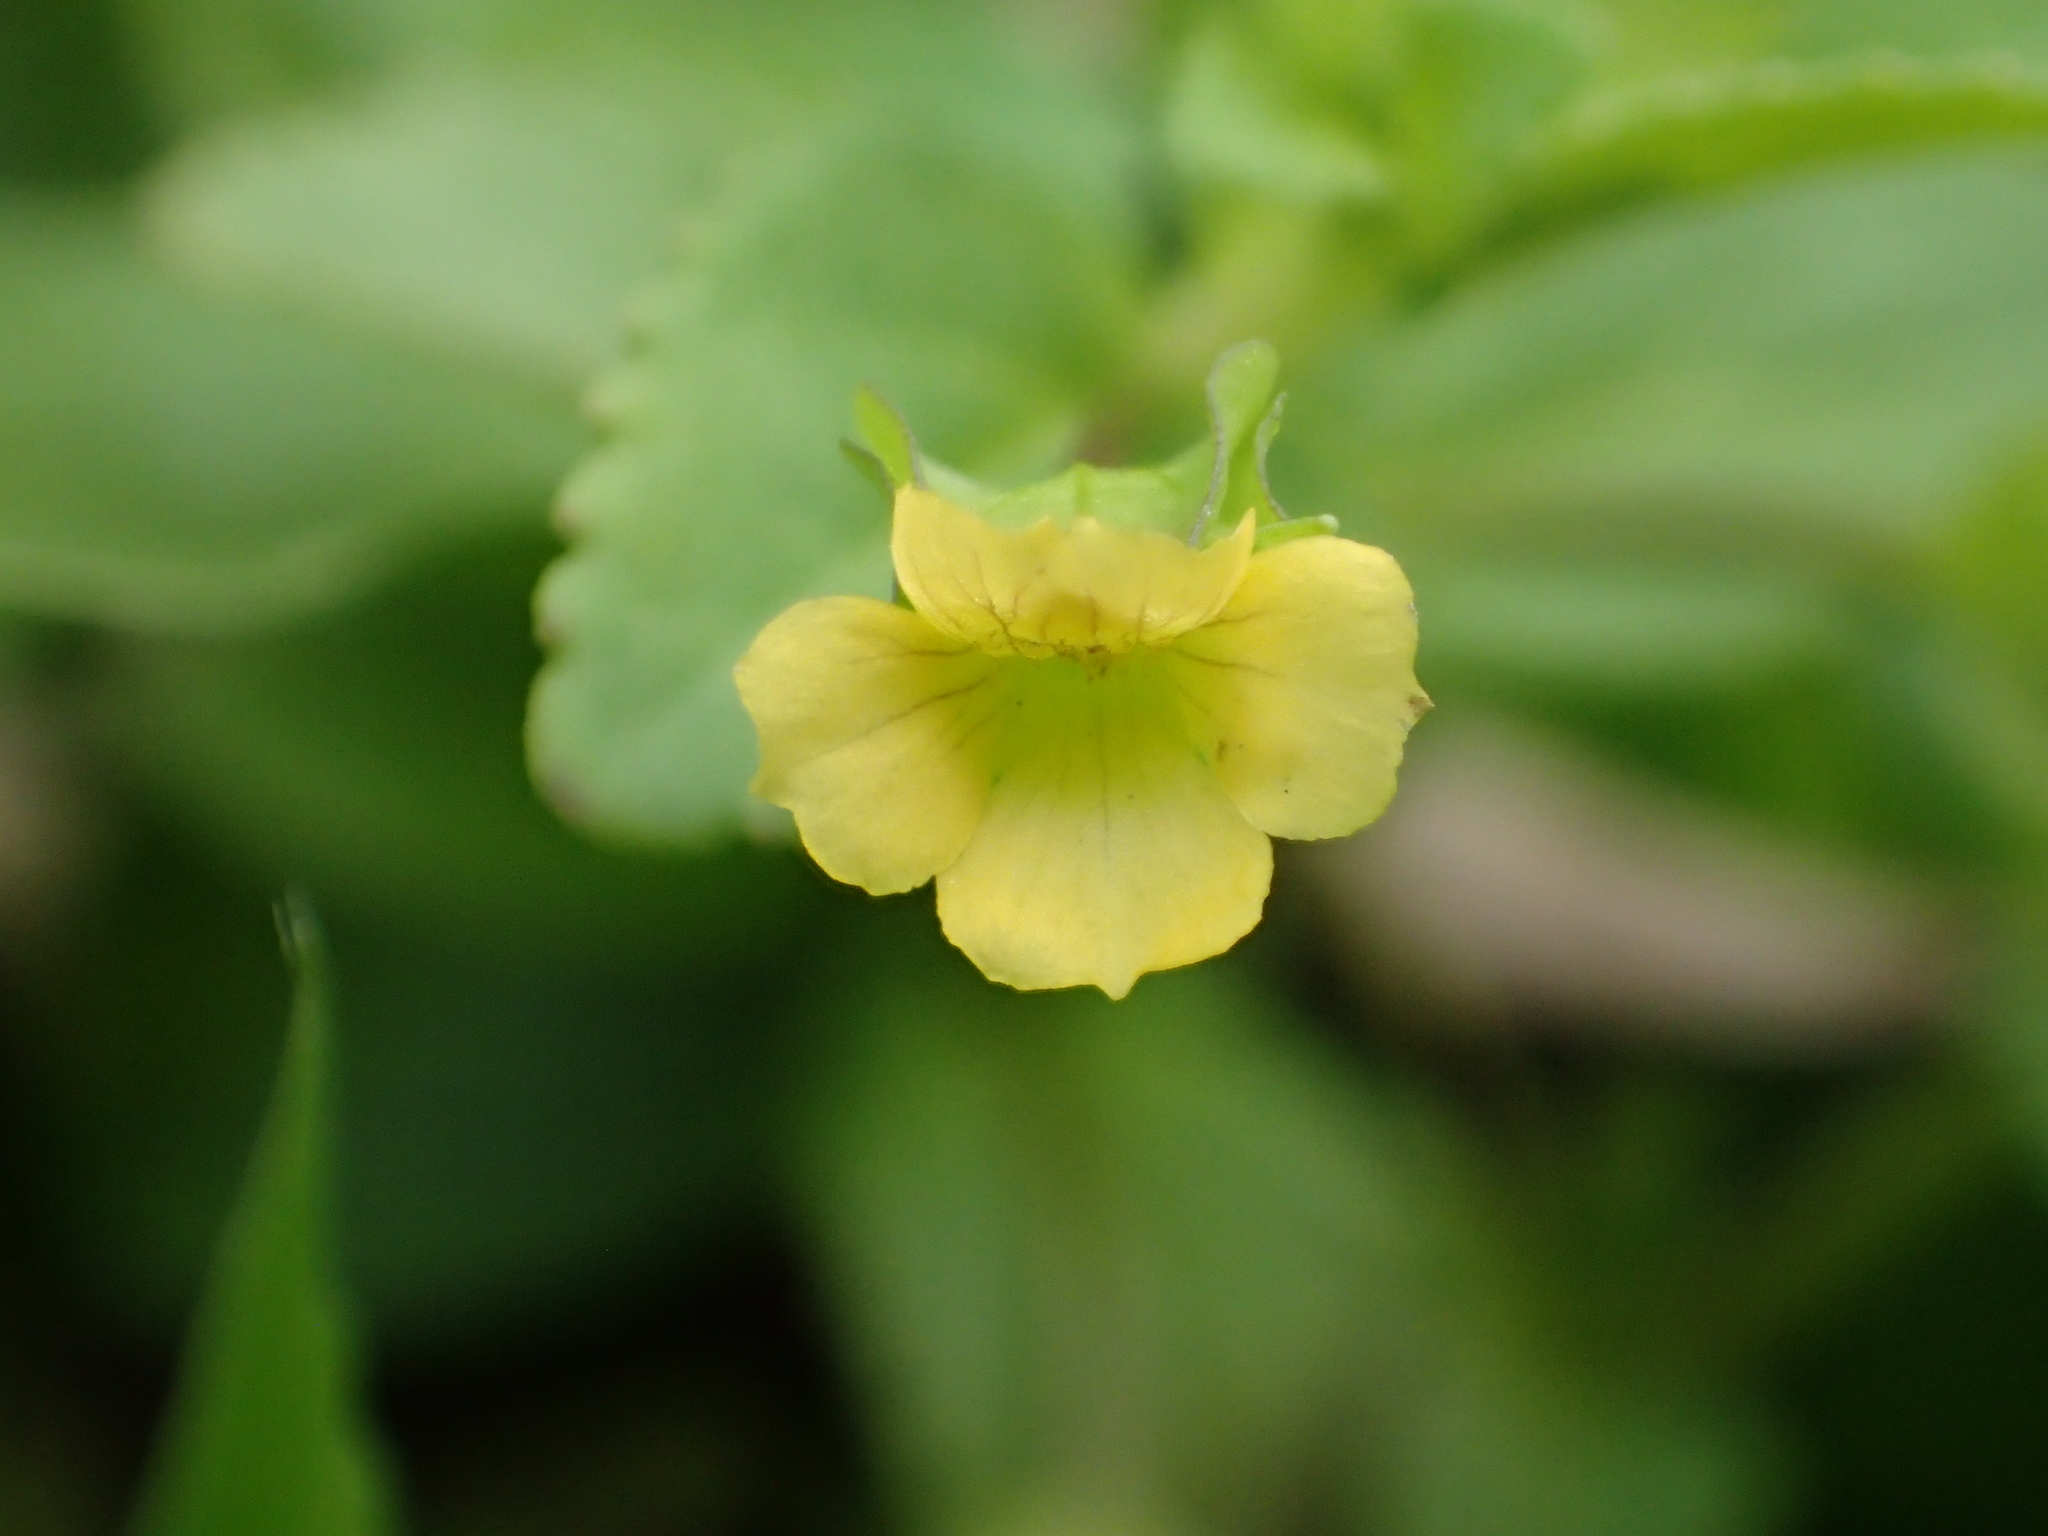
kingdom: Plantae
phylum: Tracheophyta
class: Magnoliopsida
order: Lamiales
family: Plantaginaceae
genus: Mecardonia
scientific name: Mecardonia procumbens
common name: Baby jump-up
